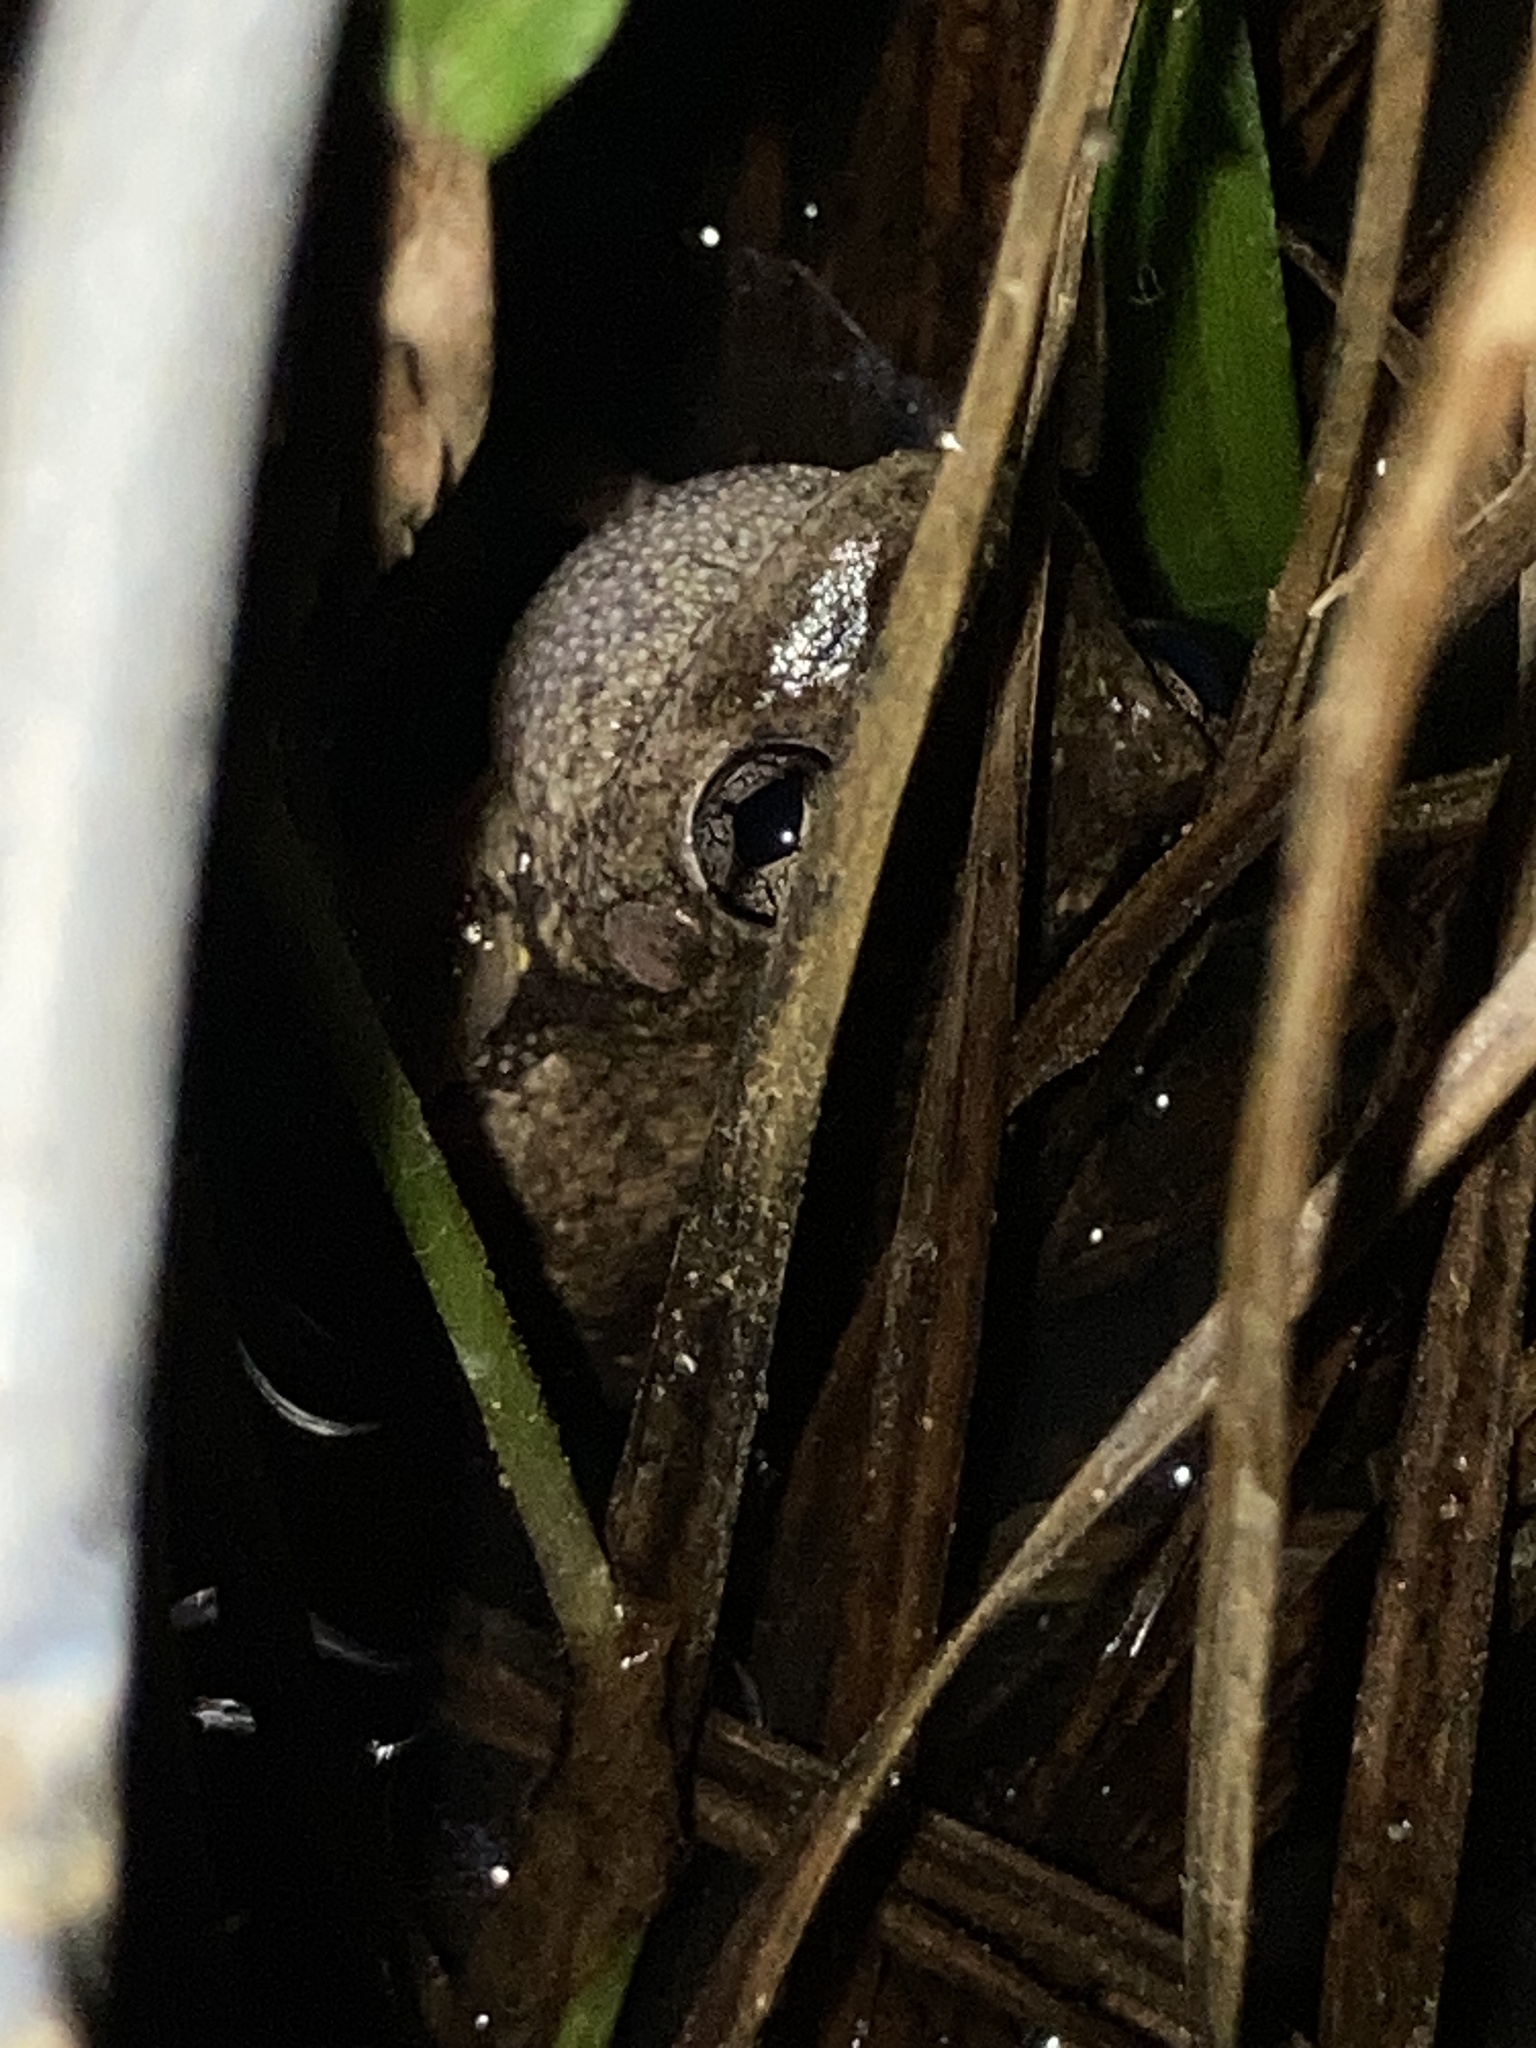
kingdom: Animalia
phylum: Chordata
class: Amphibia
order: Anura
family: Pelodryadidae
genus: Litoria
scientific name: Litoria peronii
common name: Emerald spotted treefrog
